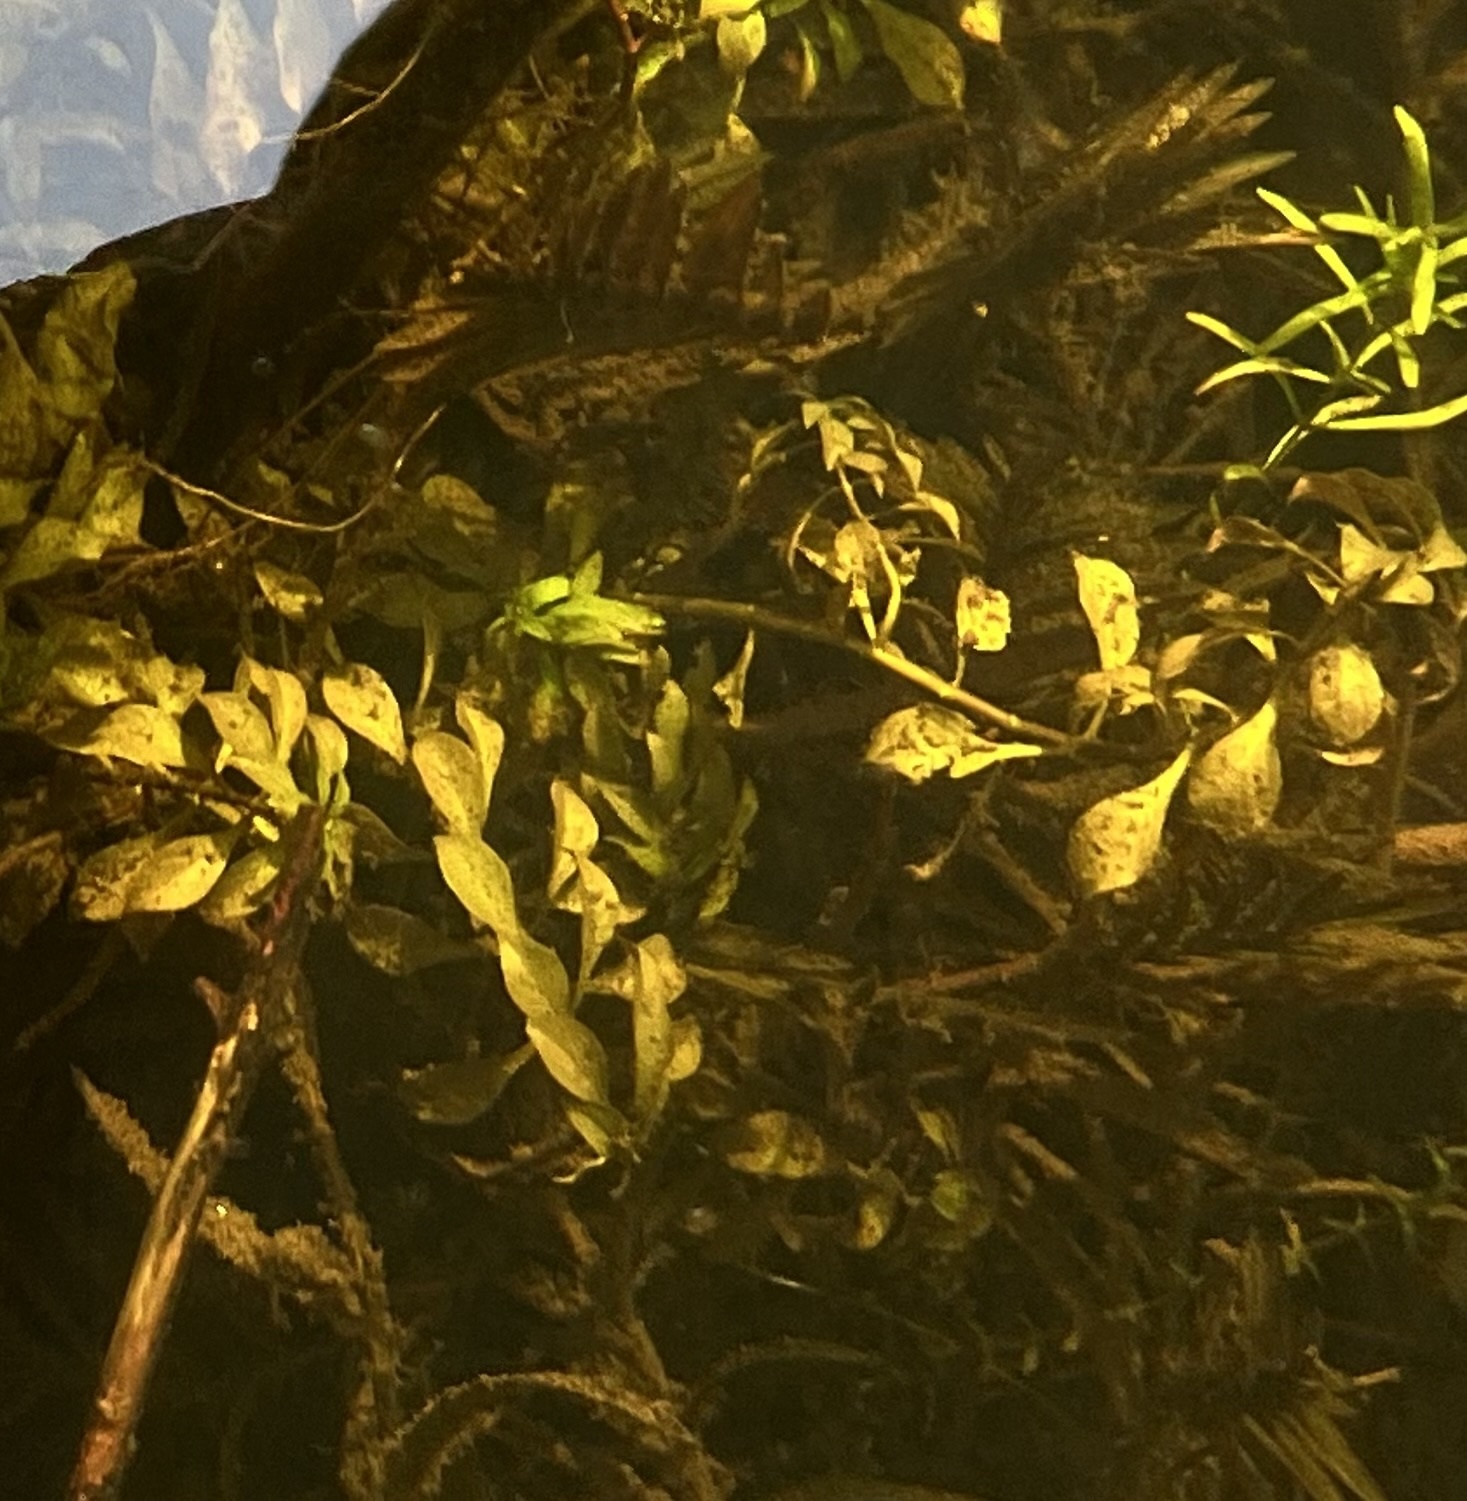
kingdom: Plantae
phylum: Tracheophyta
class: Magnoliopsida
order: Myrtales
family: Onagraceae
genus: Ludwigia
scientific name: Ludwigia palustris
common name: Hampshire-purslane
